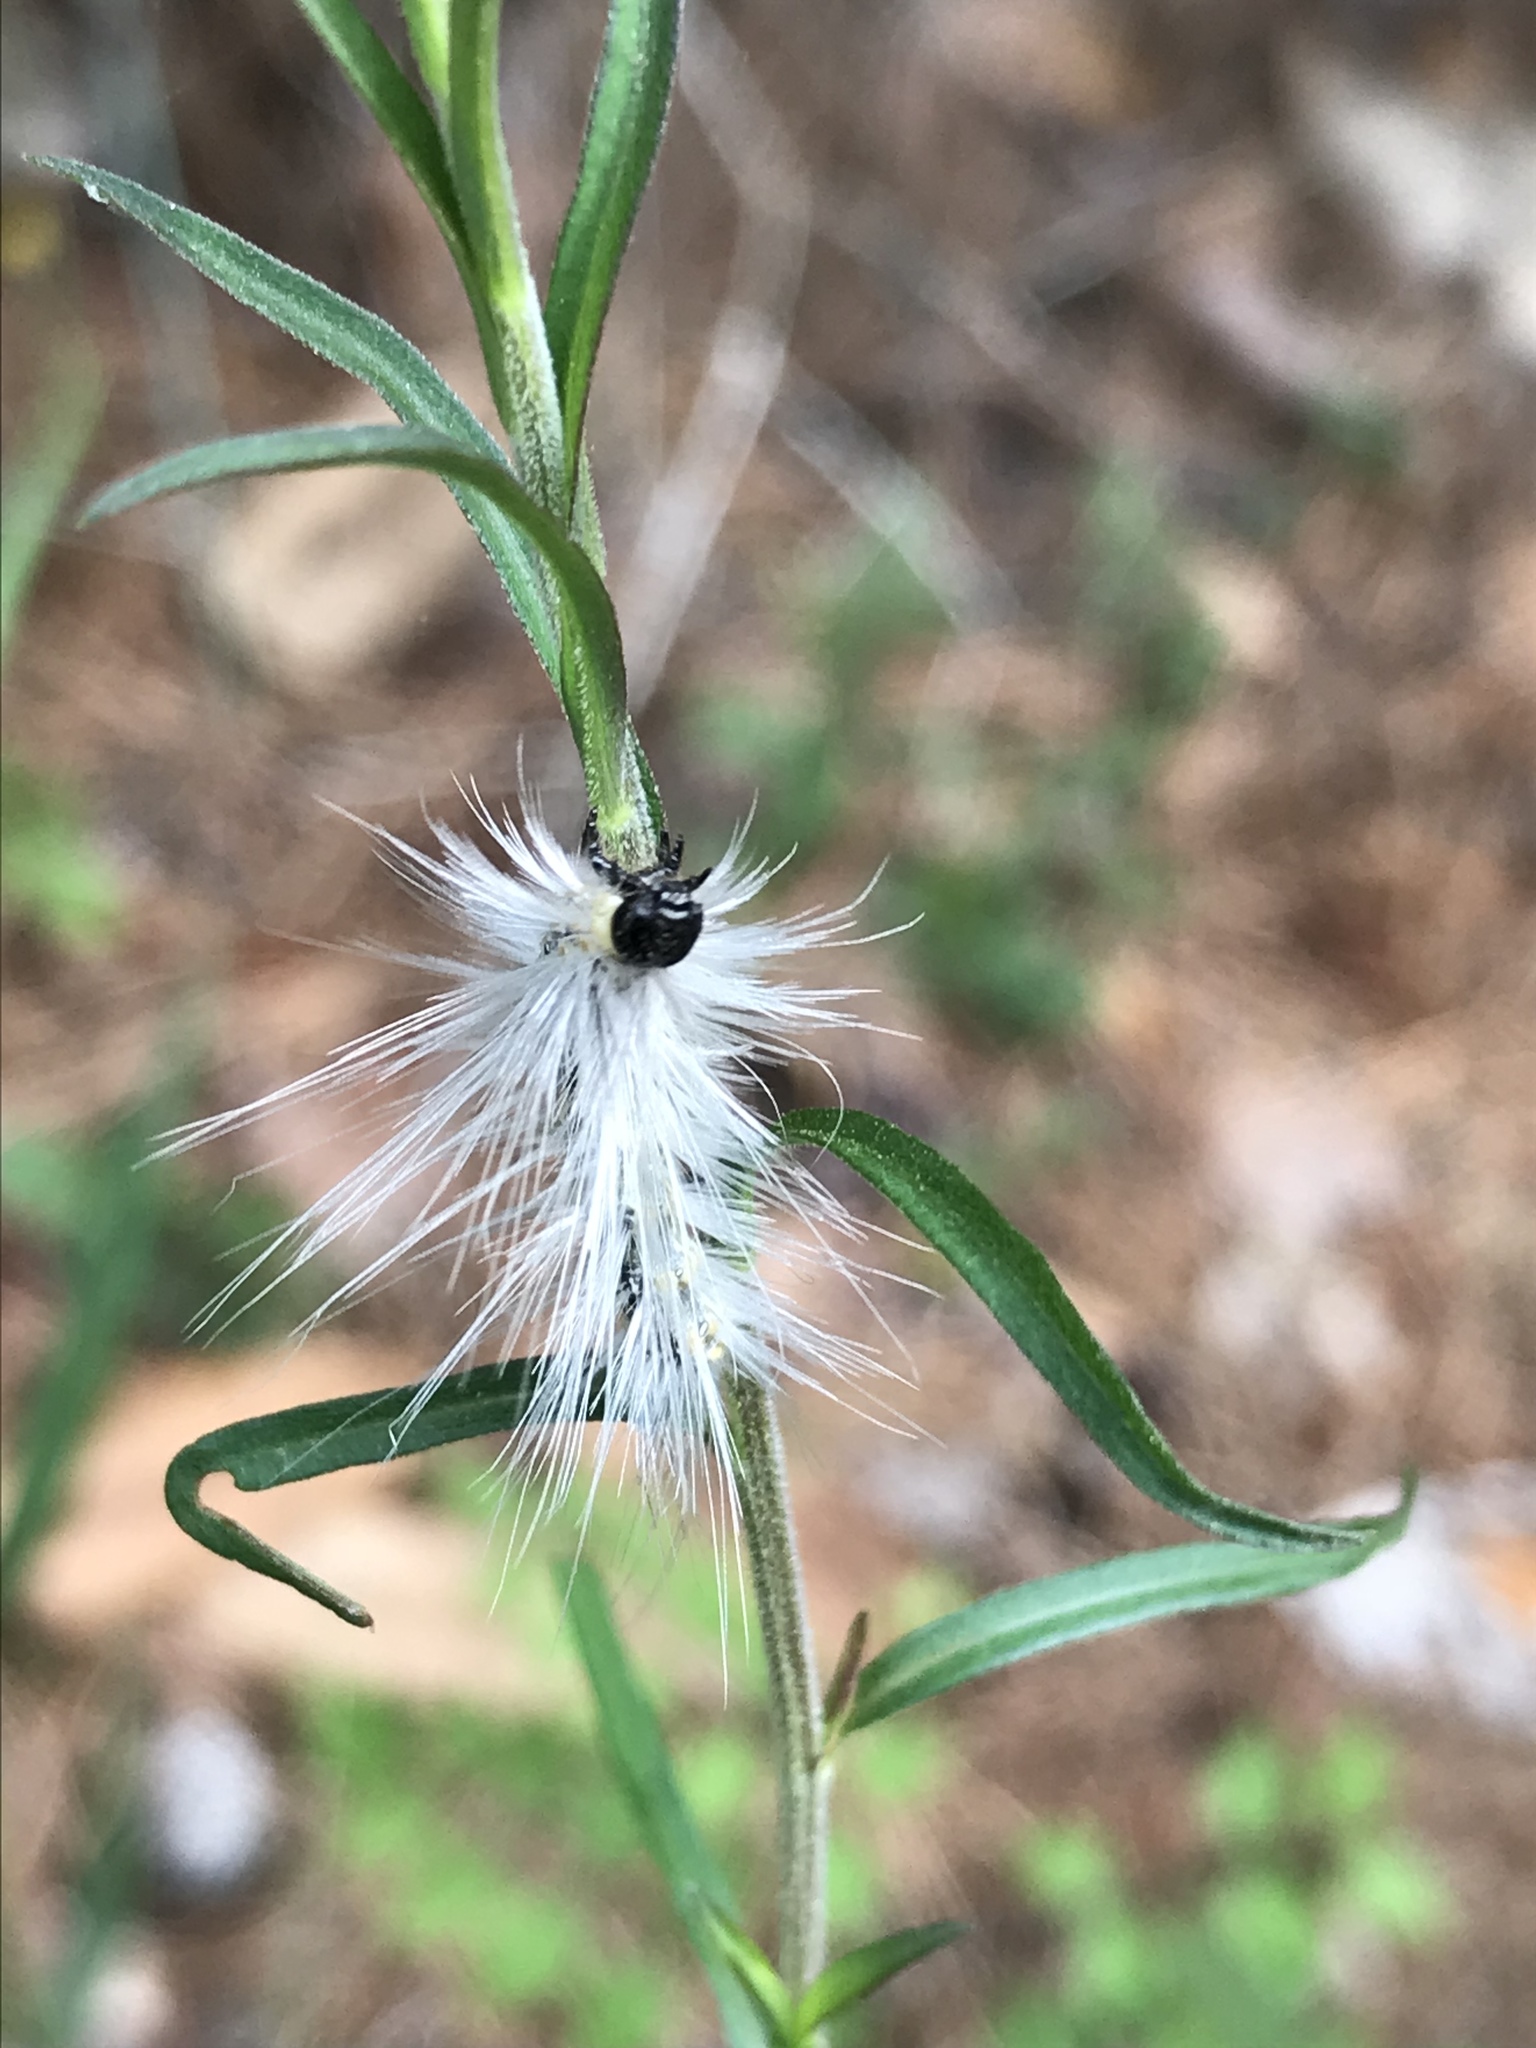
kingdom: Animalia
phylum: Arthropoda
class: Insecta
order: Lepidoptera
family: Erebidae
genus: Hyphantria
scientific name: Hyphantria cunea
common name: American white moth
